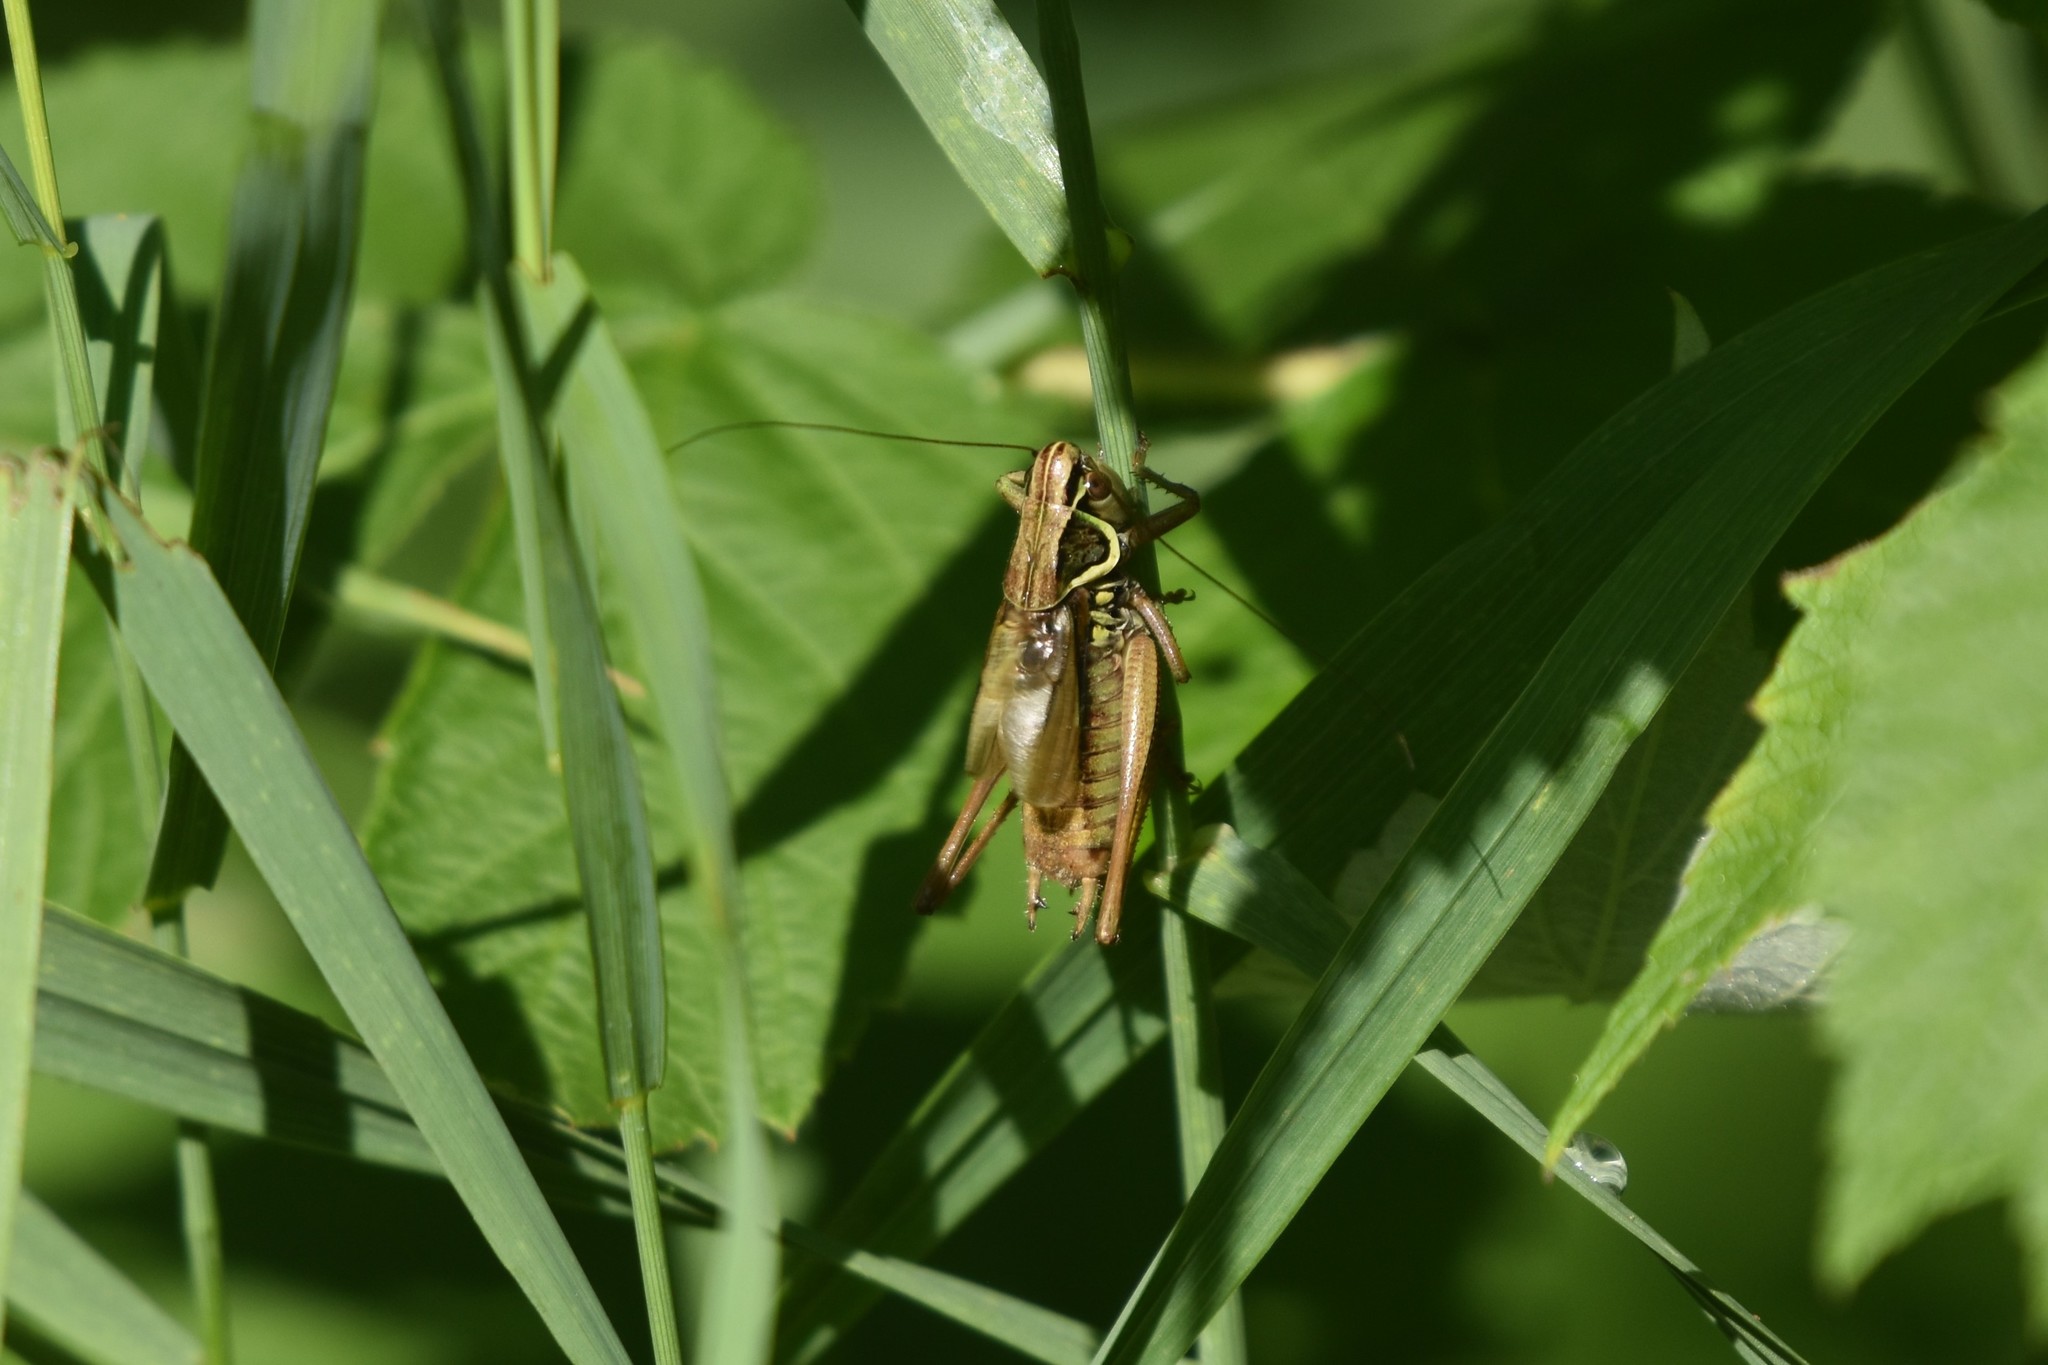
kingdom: Animalia
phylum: Arthropoda
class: Insecta
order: Orthoptera
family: Tettigoniidae
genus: Roeseliana
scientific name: Roeseliana roeselii
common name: Roesel's bush cricket
